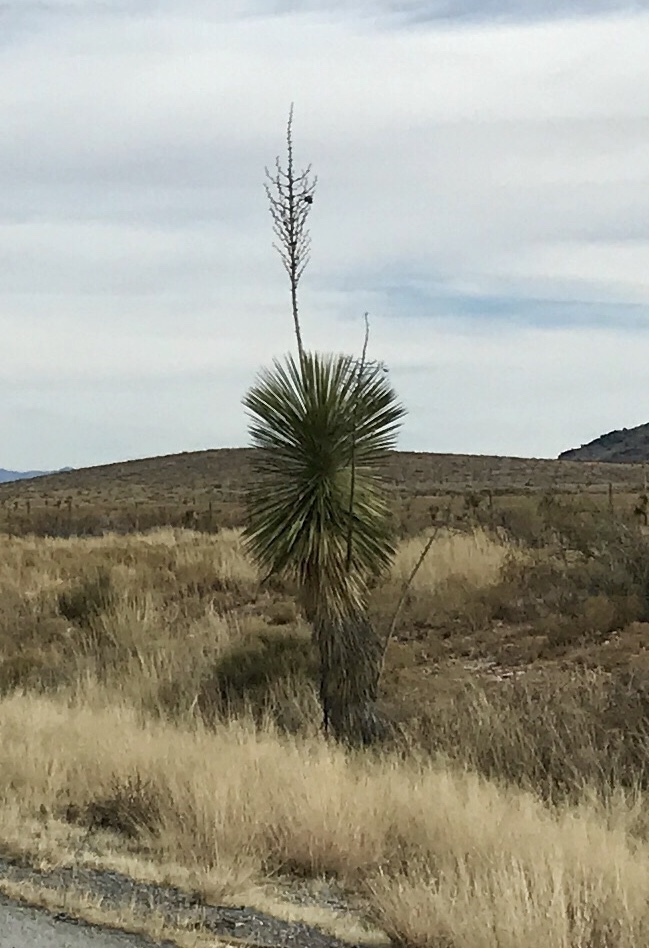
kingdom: Plantae
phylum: Tracheophyta
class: Liliopsida
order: Asparagales
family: Asparagaceae
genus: Yucca
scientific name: Yucca elata
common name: Palmella
